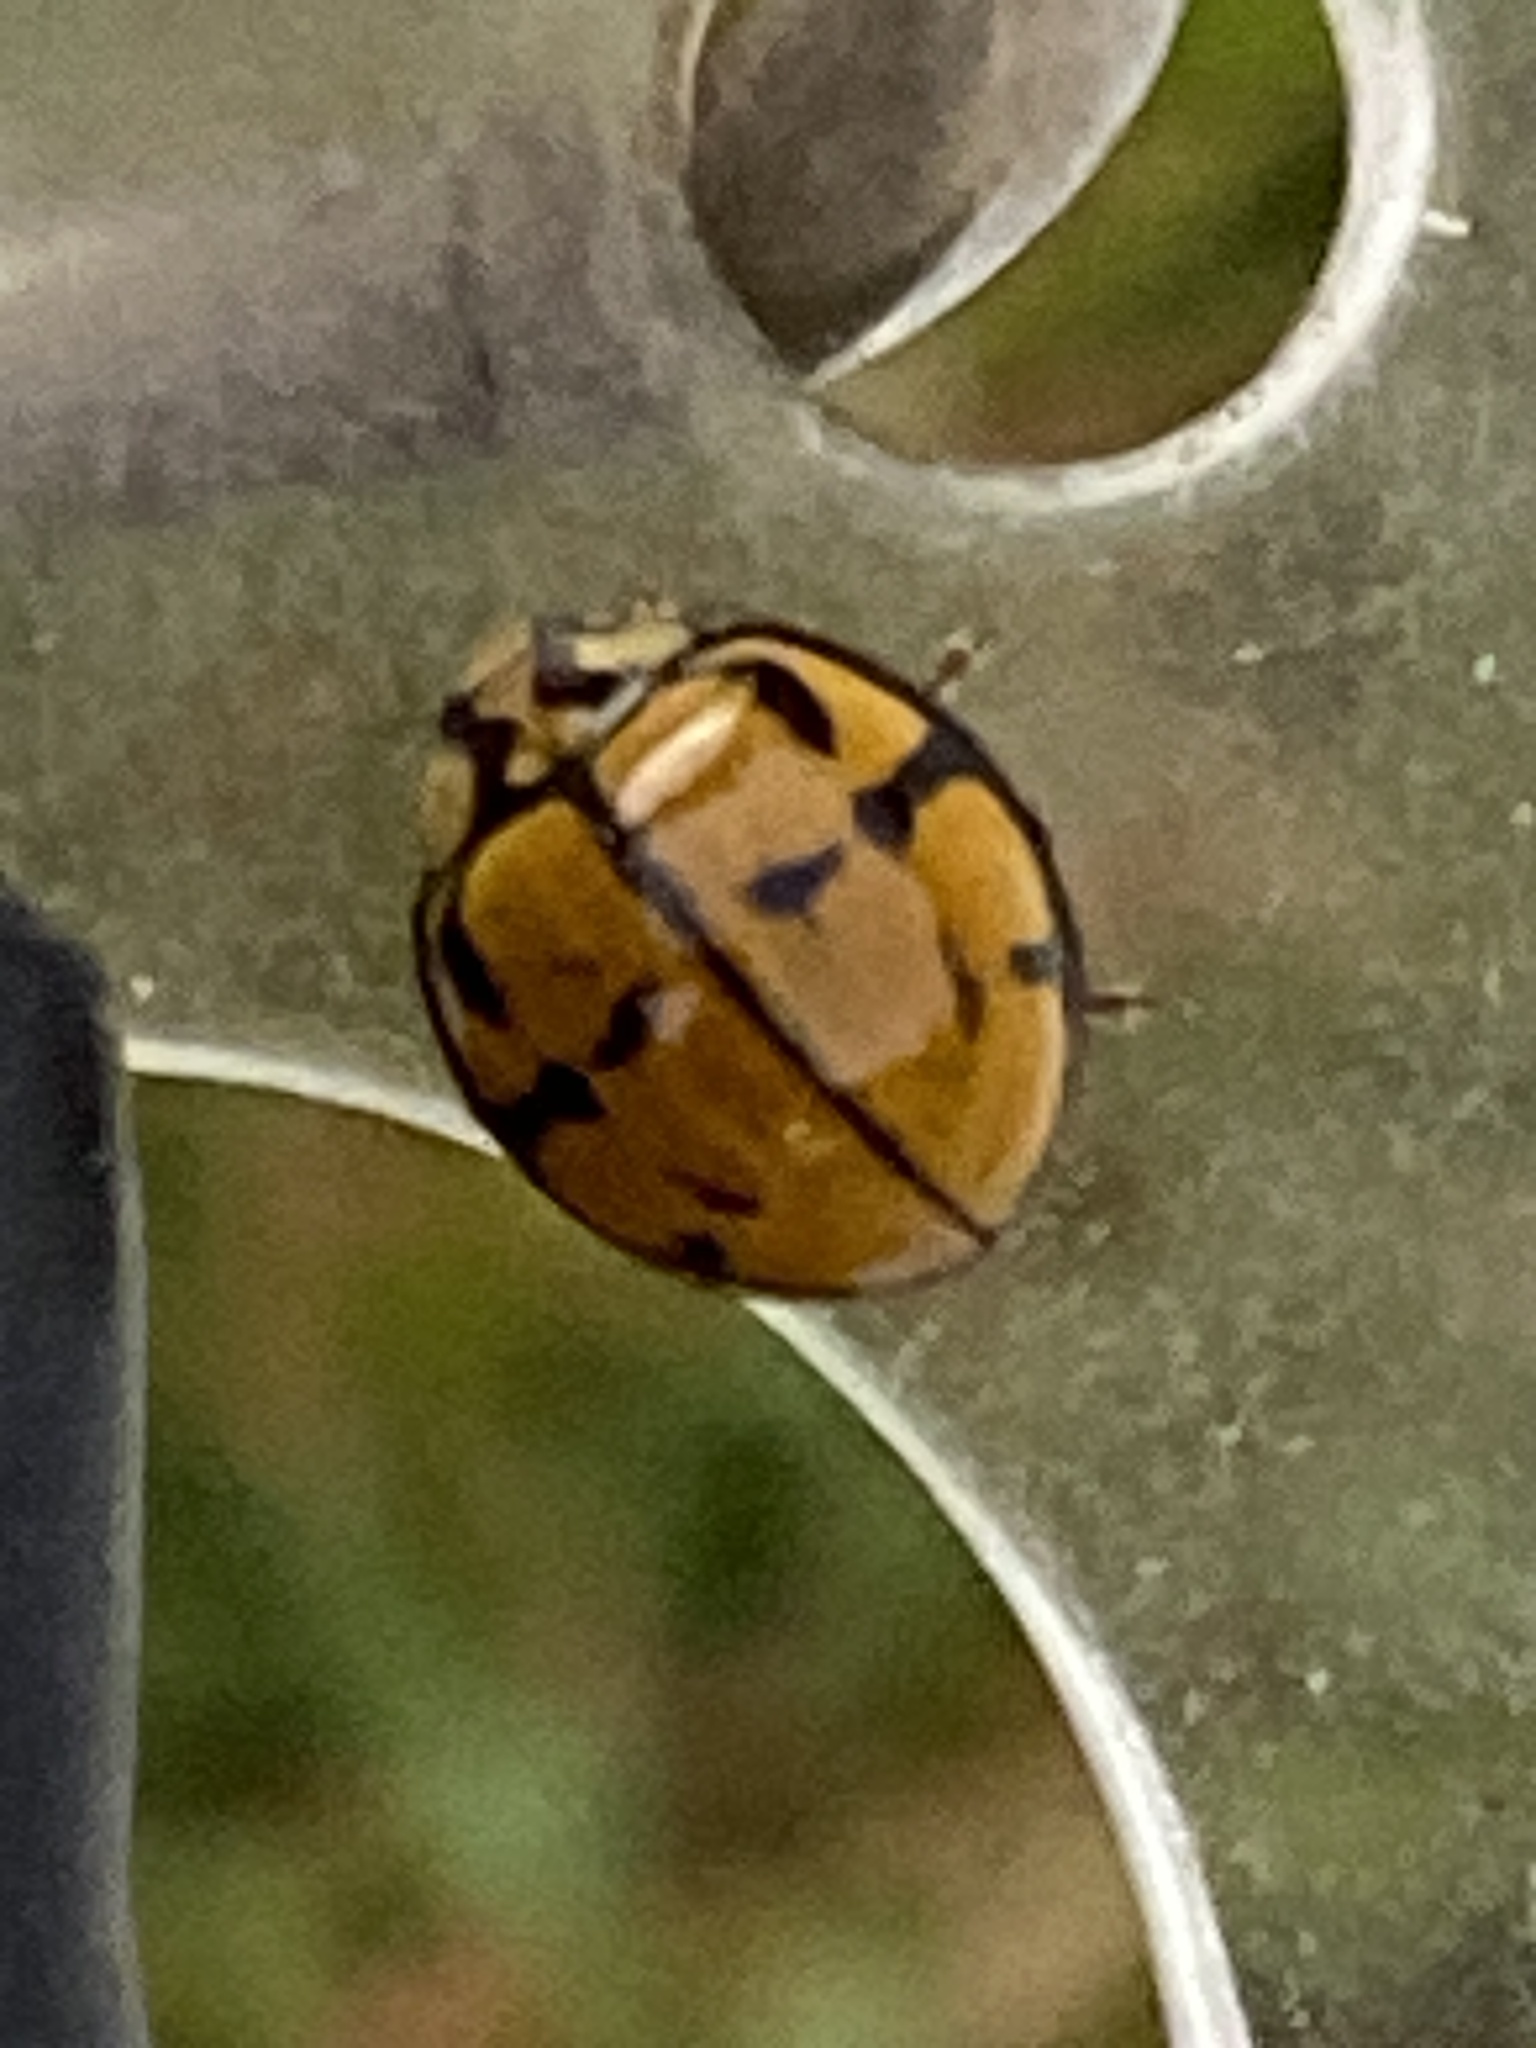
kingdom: Animalia
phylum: Arthropoda
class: Insecta
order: Coleoptera
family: Coccinellidae
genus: Harmonia
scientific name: Harmonia
